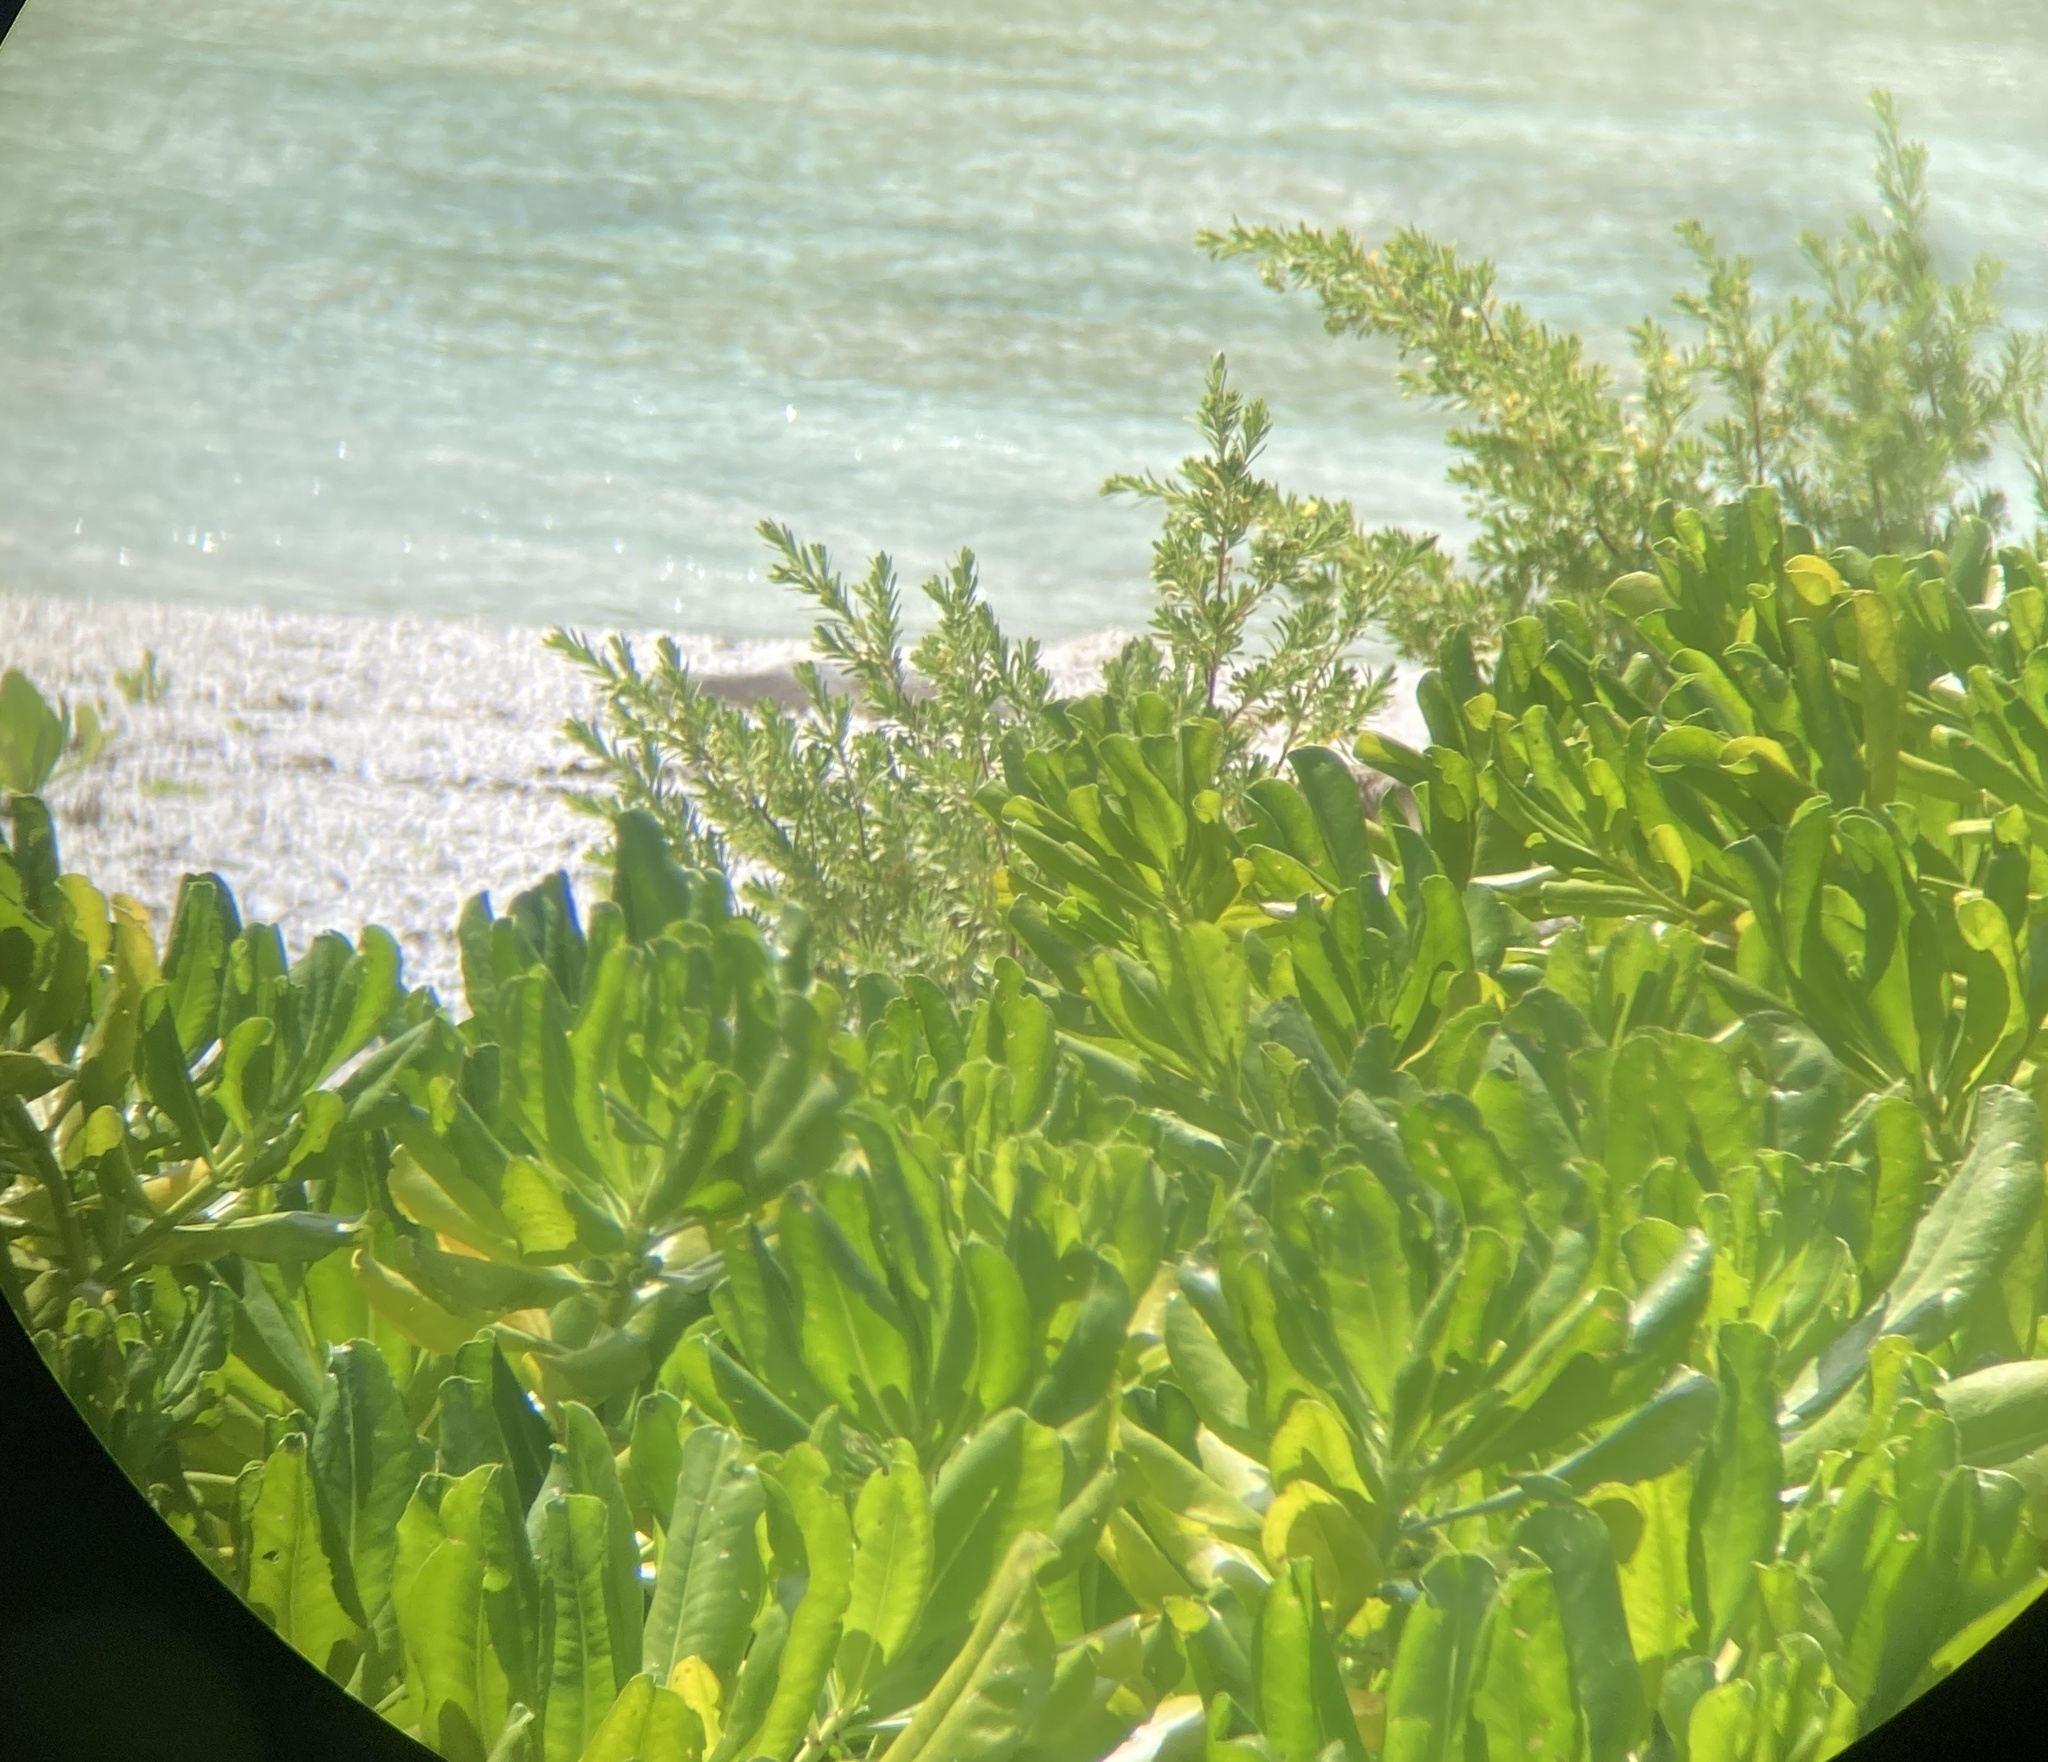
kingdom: Plantae
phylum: Tracheophyta
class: Magnoliopsida
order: Asterales
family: Goodeniaceae
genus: Scaevola
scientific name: Scaevola taccada
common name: Sea lettucetree
